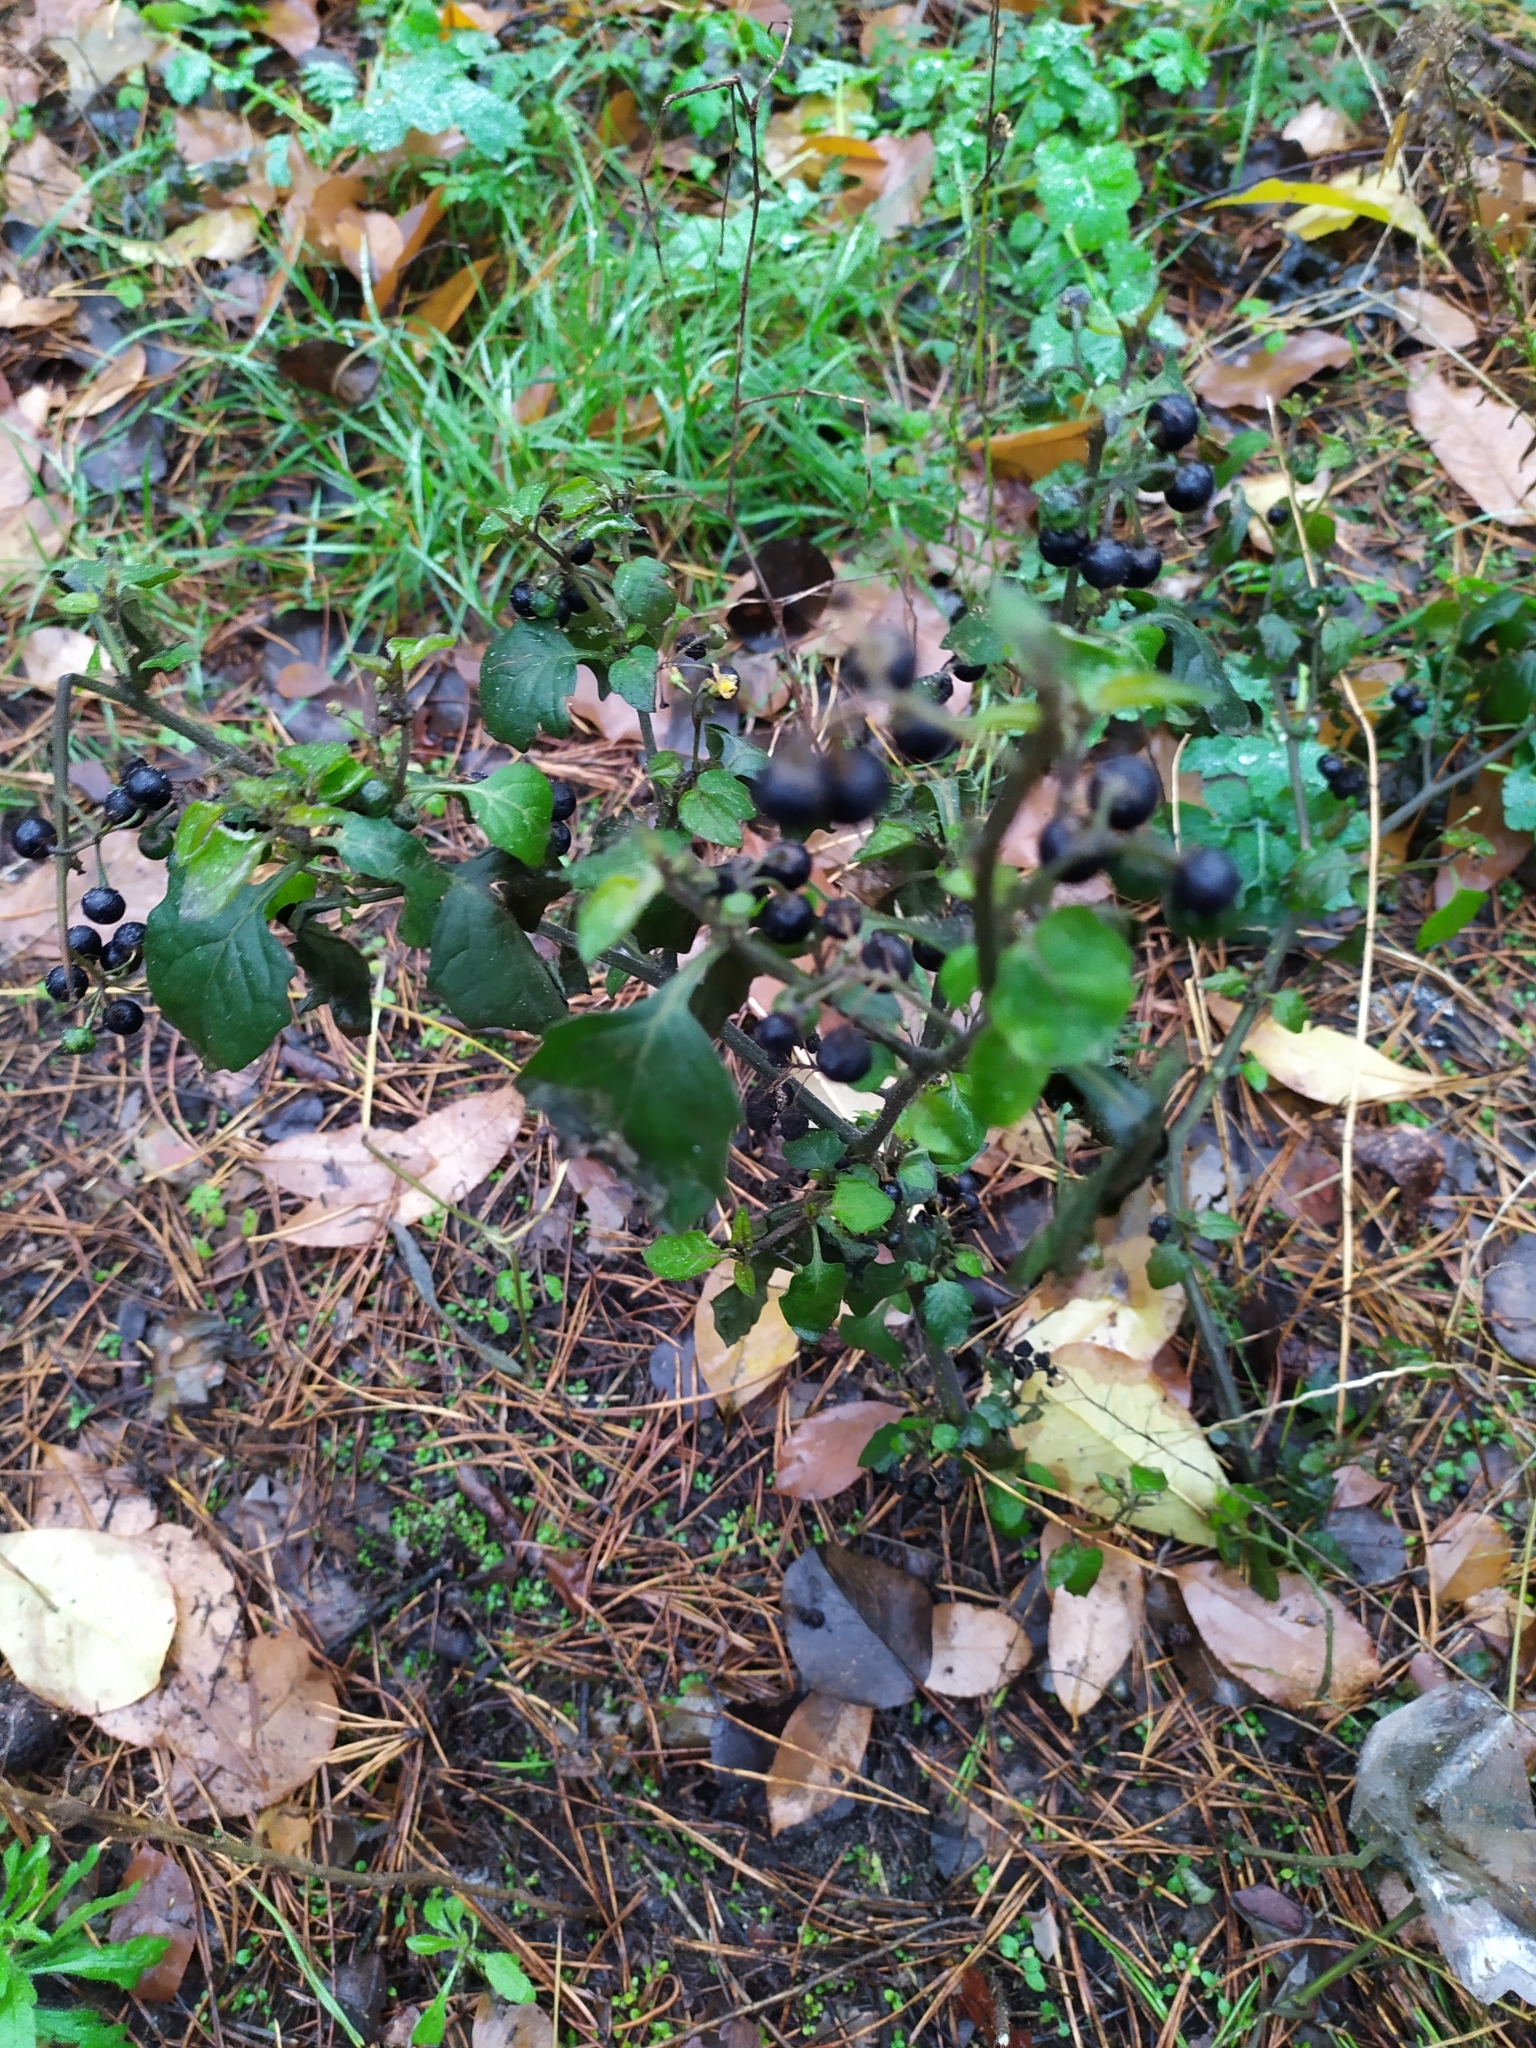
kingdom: Plantae
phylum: Tracheophyta
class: Magnoliopsida
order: Solanales
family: Solanaceae
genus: Solanum
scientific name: Solanum nigrum
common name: Black nightshade
